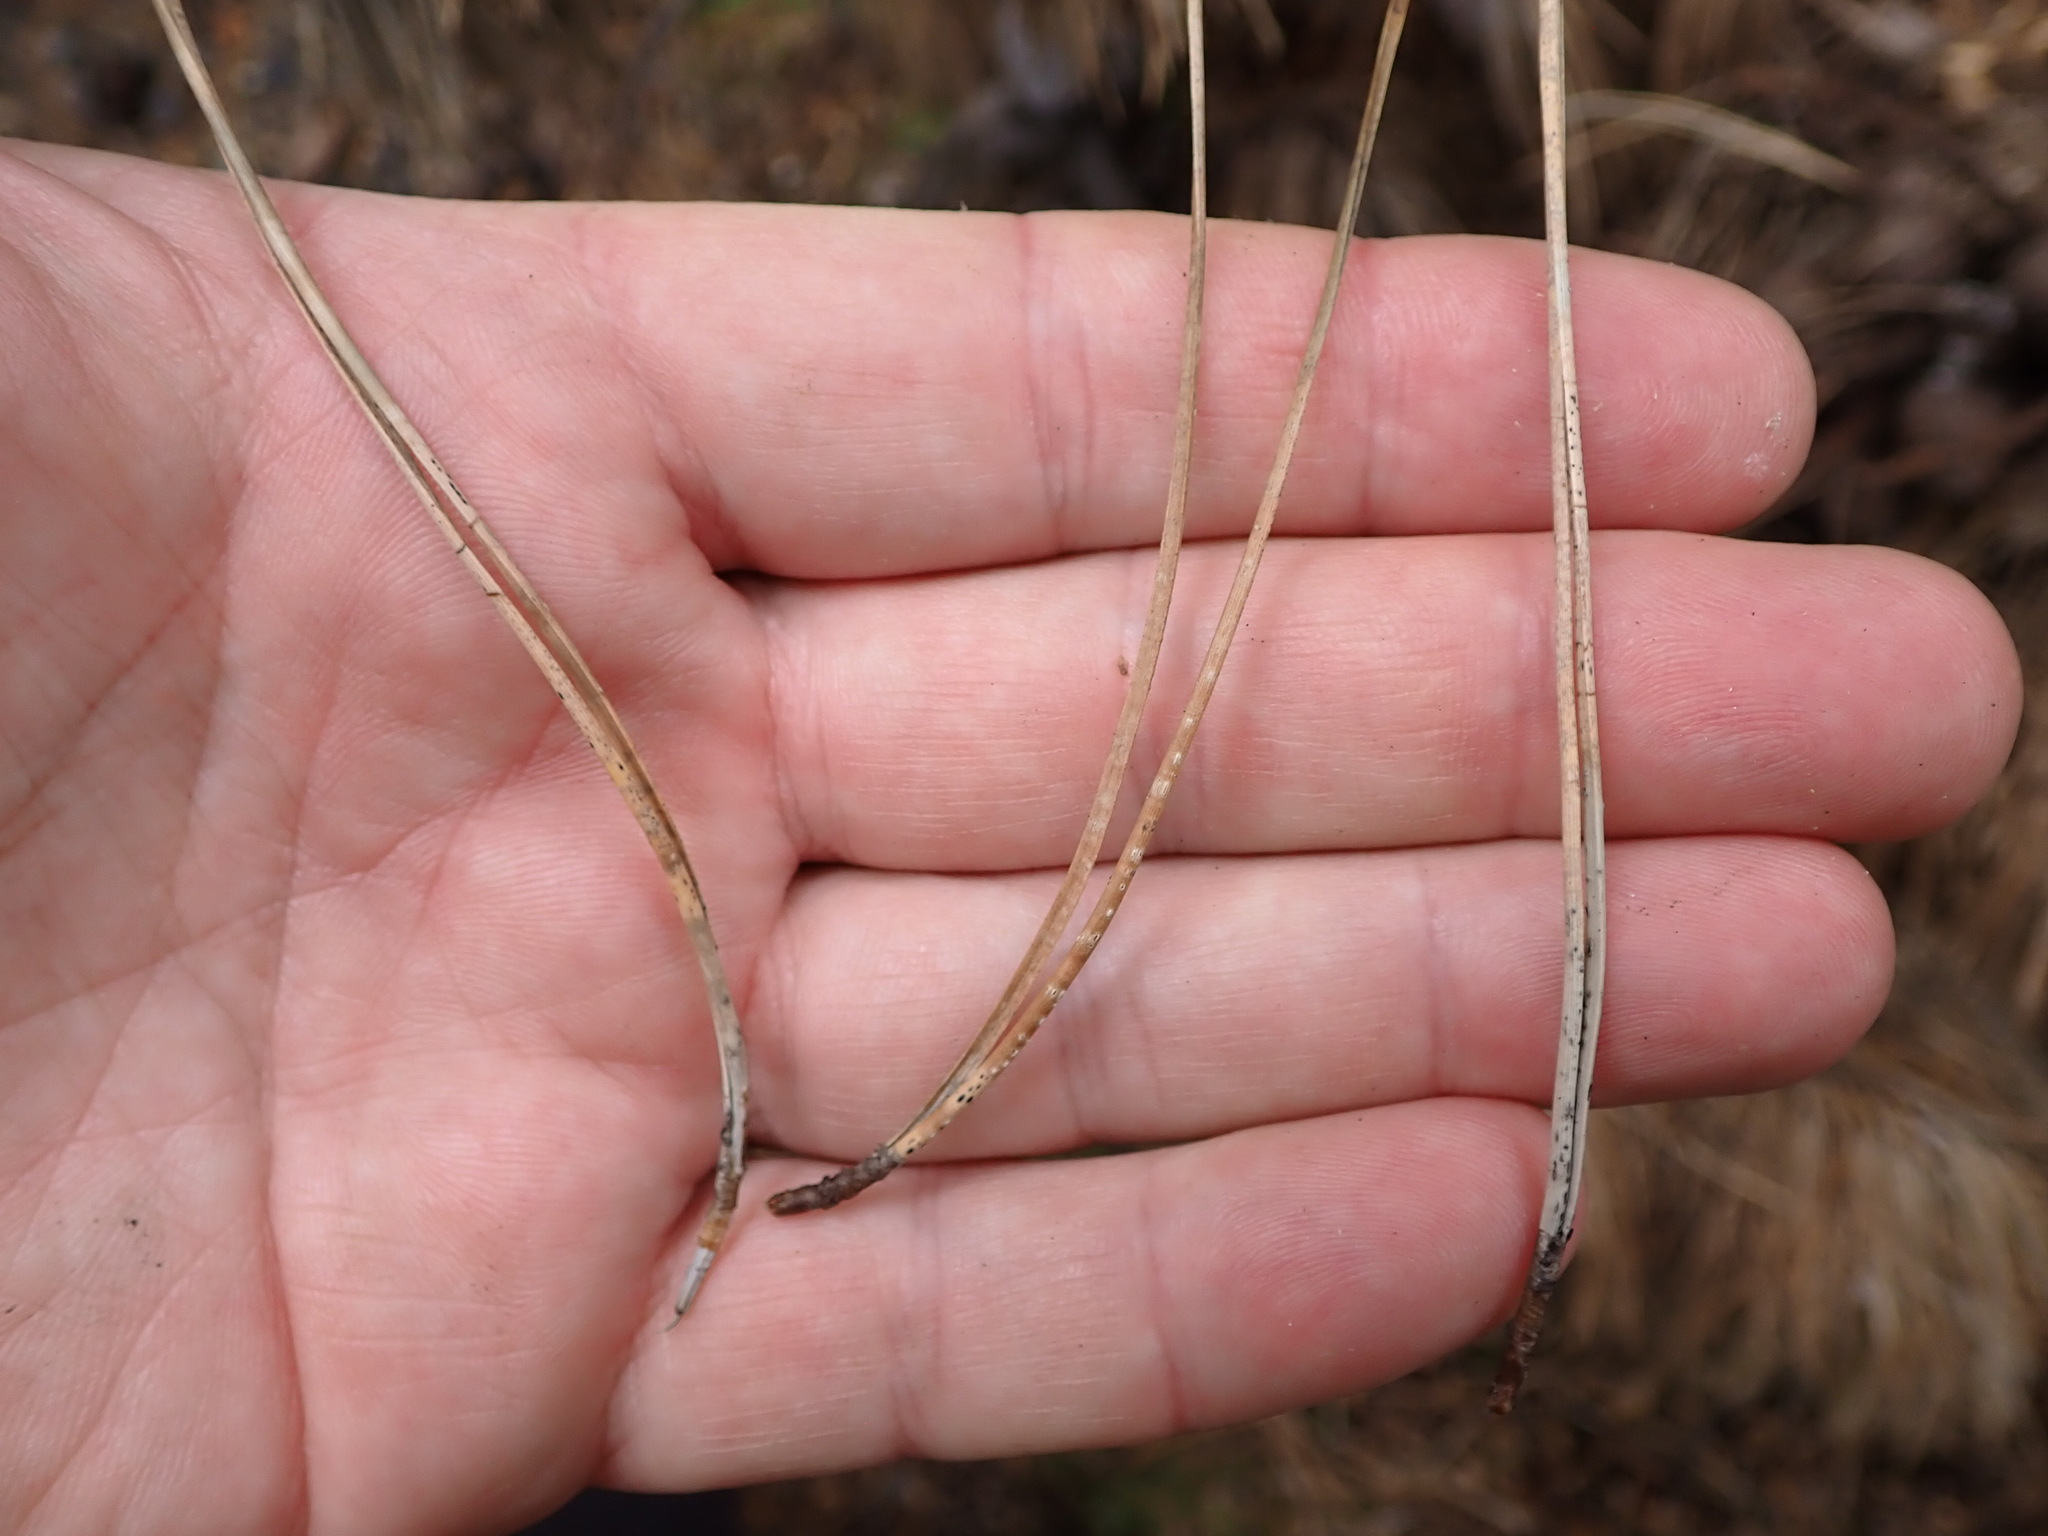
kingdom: Plantae
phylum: Tracheophyta
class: Pinopsida
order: Pinales
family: Pinaceae
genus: Pinus
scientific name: Pinus muricata
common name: Bishop pine
